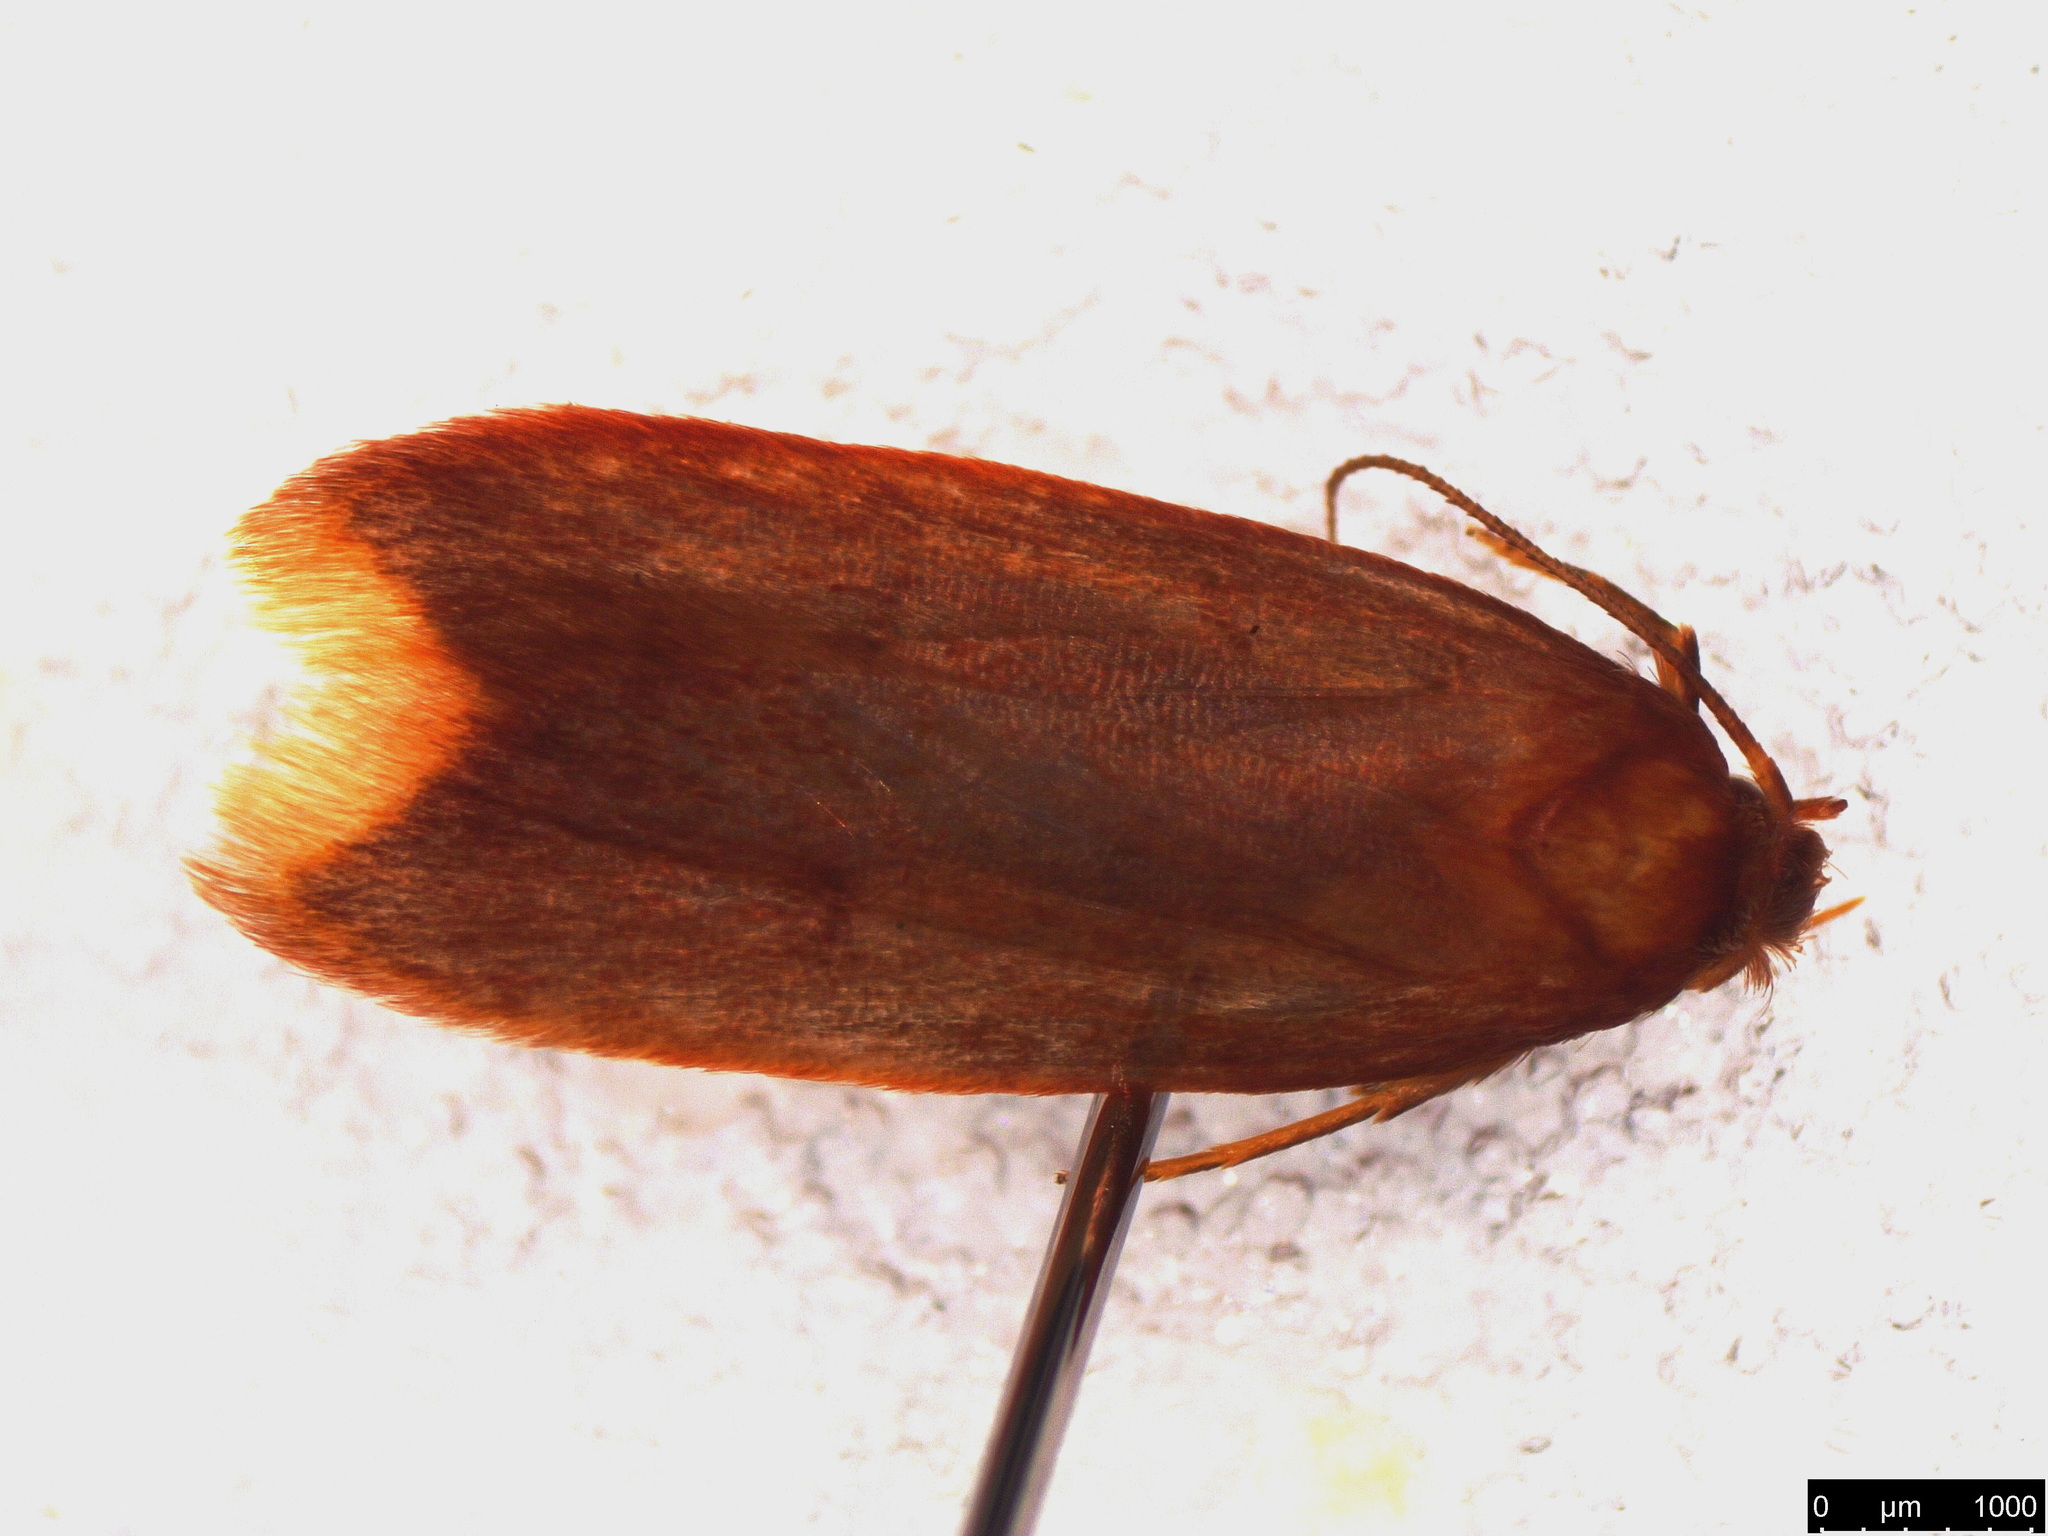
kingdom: Animalia
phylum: Arthropoda
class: Insecta
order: Lepidoptera
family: Oecophoridae
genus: Tachystola
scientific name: Tachystola acroxantha
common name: Ruddy streak
